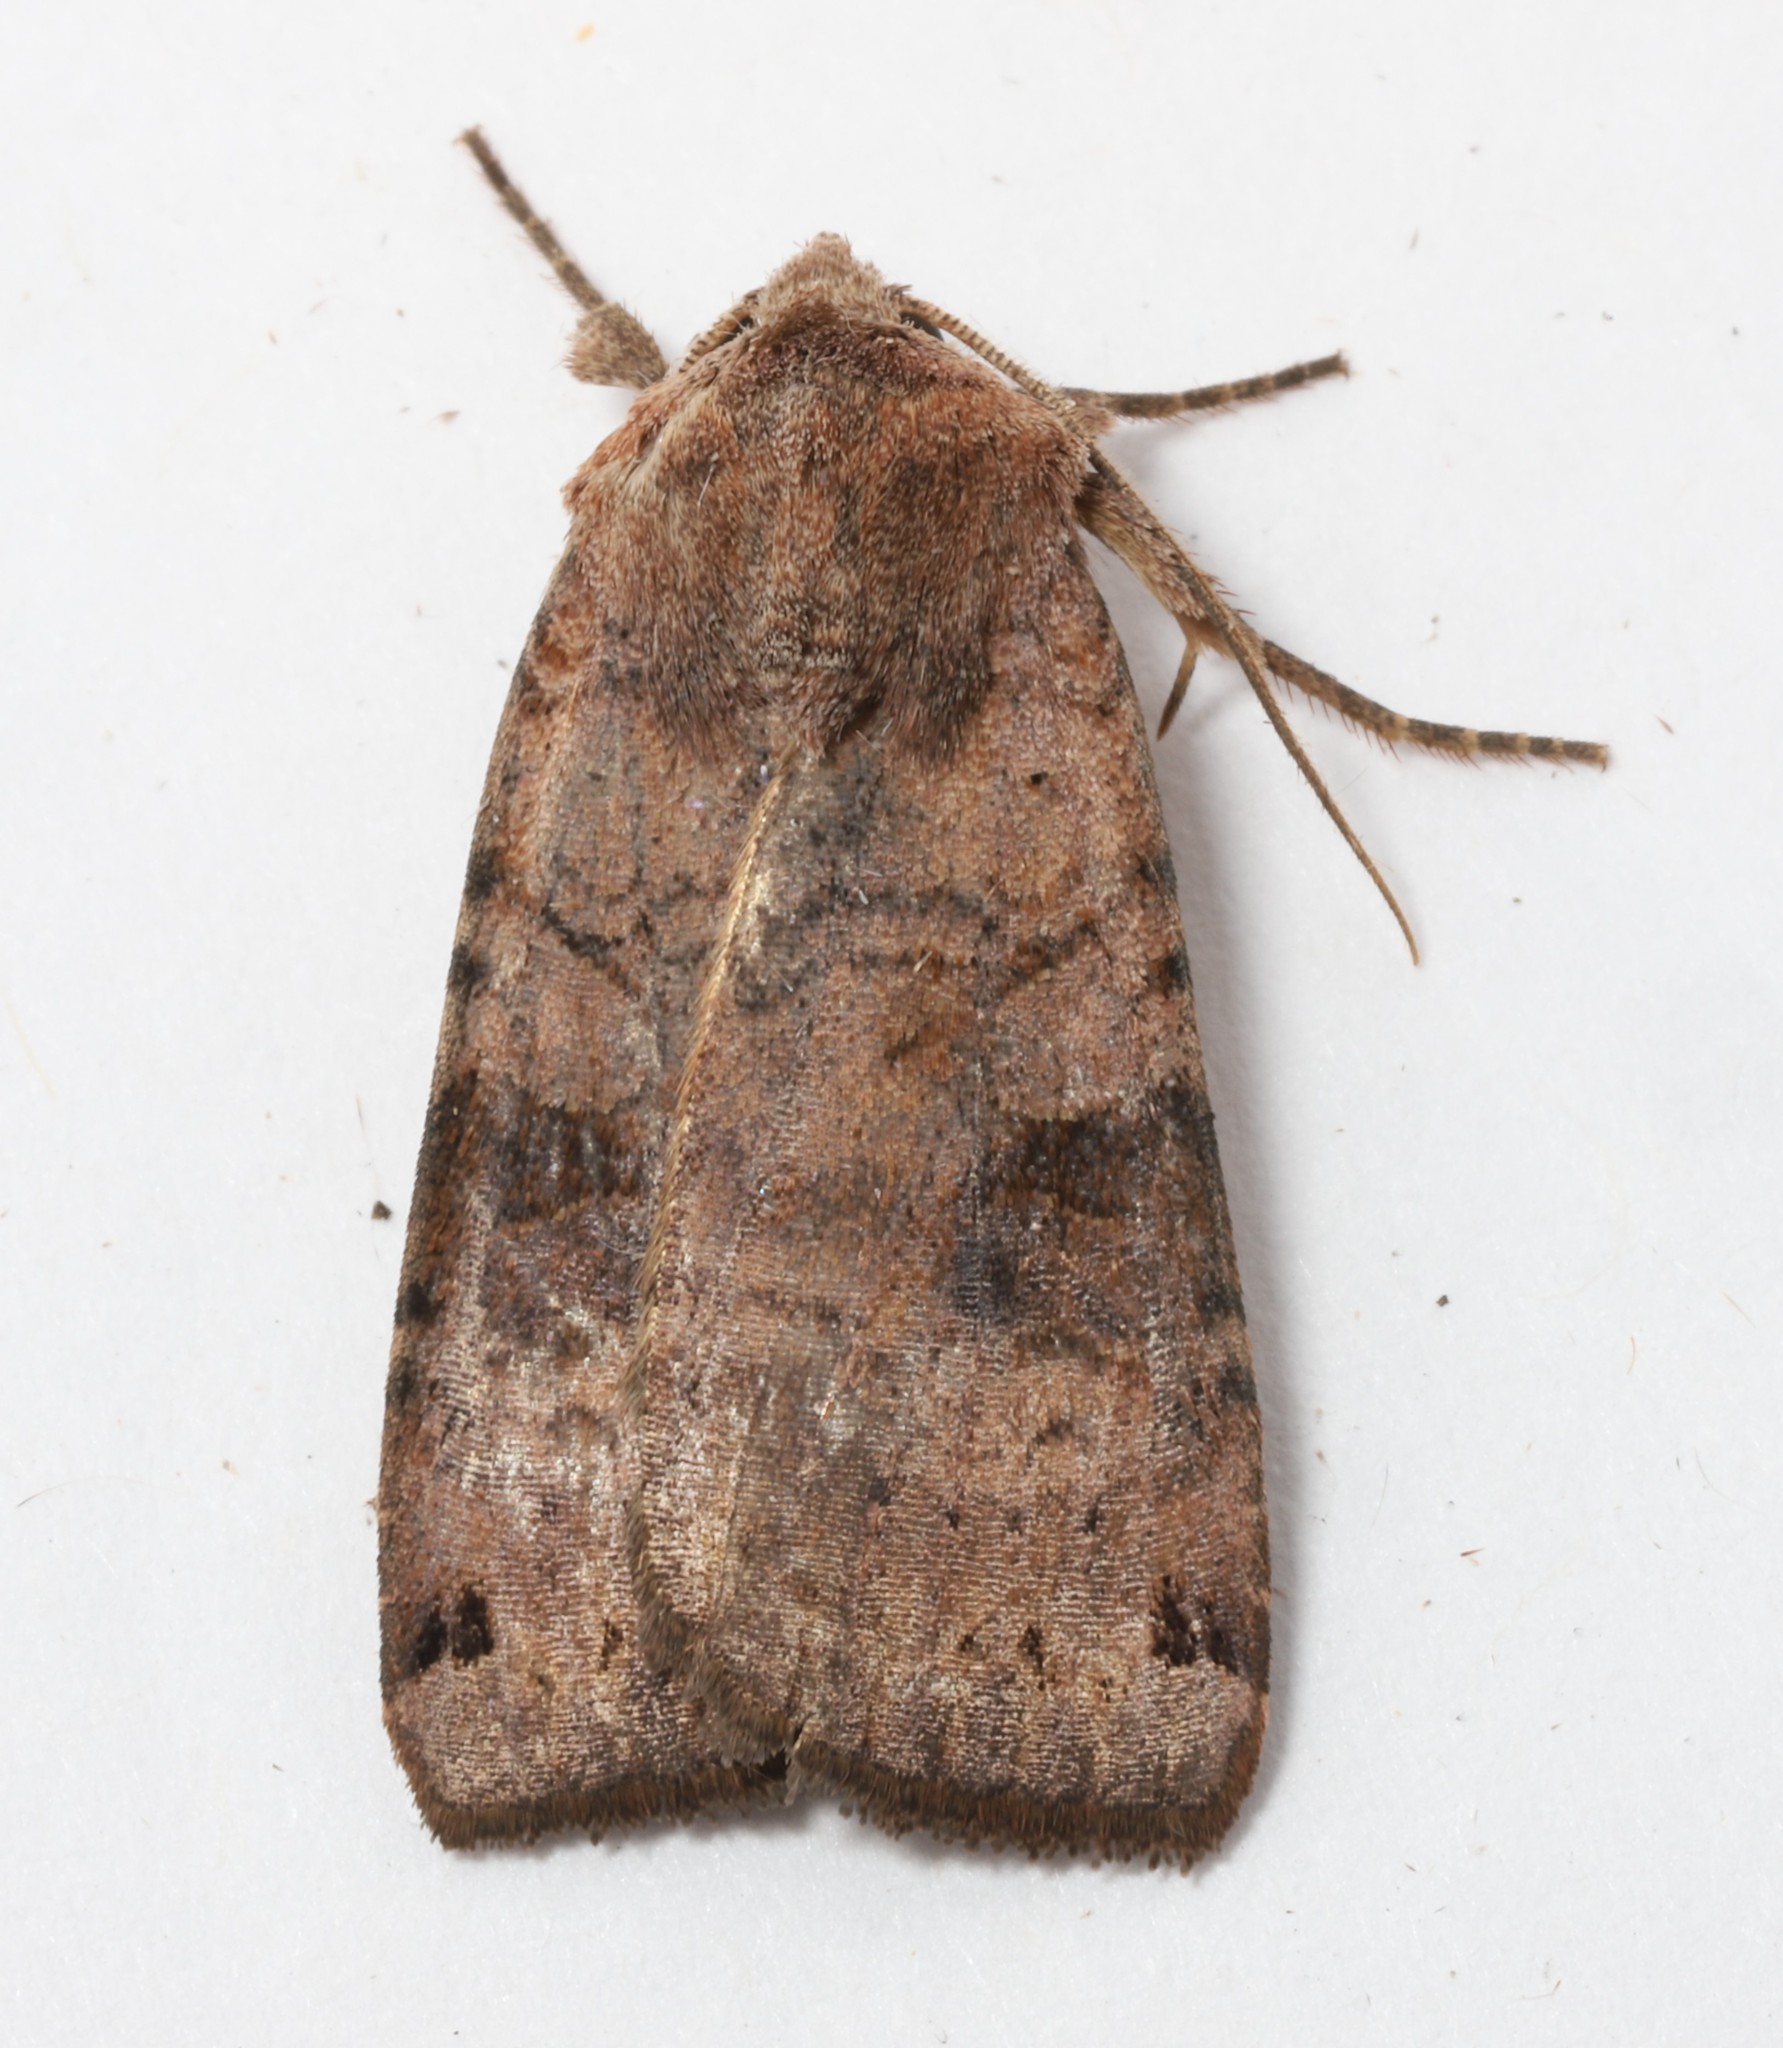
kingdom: Animalia
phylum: Arthropoda
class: Insecta
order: Lepidoptera
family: Noctuidae
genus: Xestia
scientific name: Xestia smithii
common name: Smith's dart
